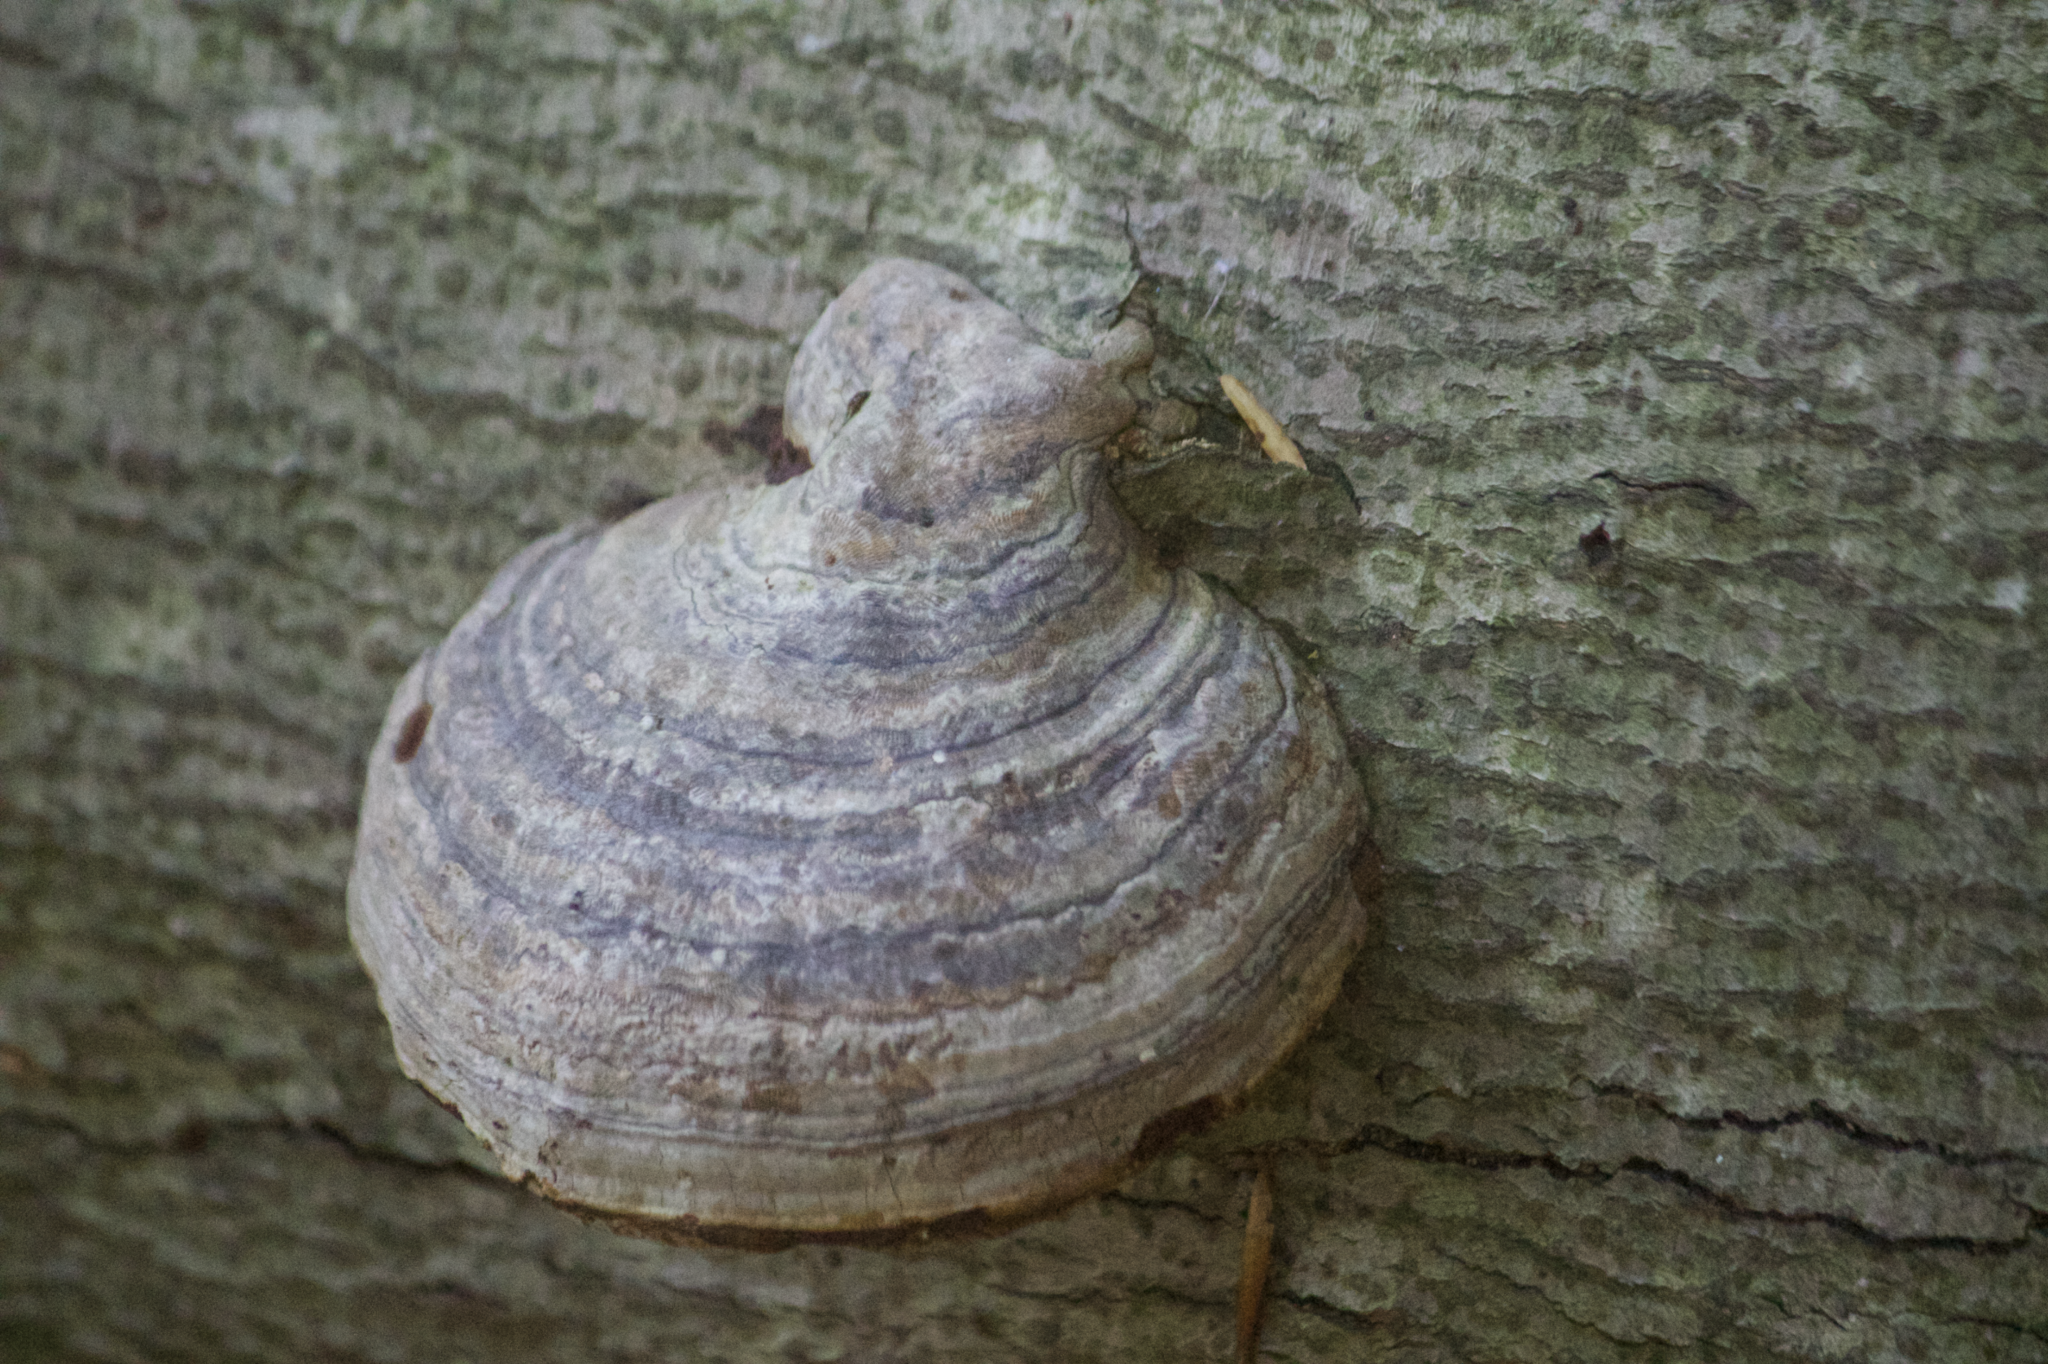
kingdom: Fungi
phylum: Basidiomycota
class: Agaricomycetes
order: Polyporales
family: Polyporaceae
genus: Fomes
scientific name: Fomes fomentarius
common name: Hoof fungus
